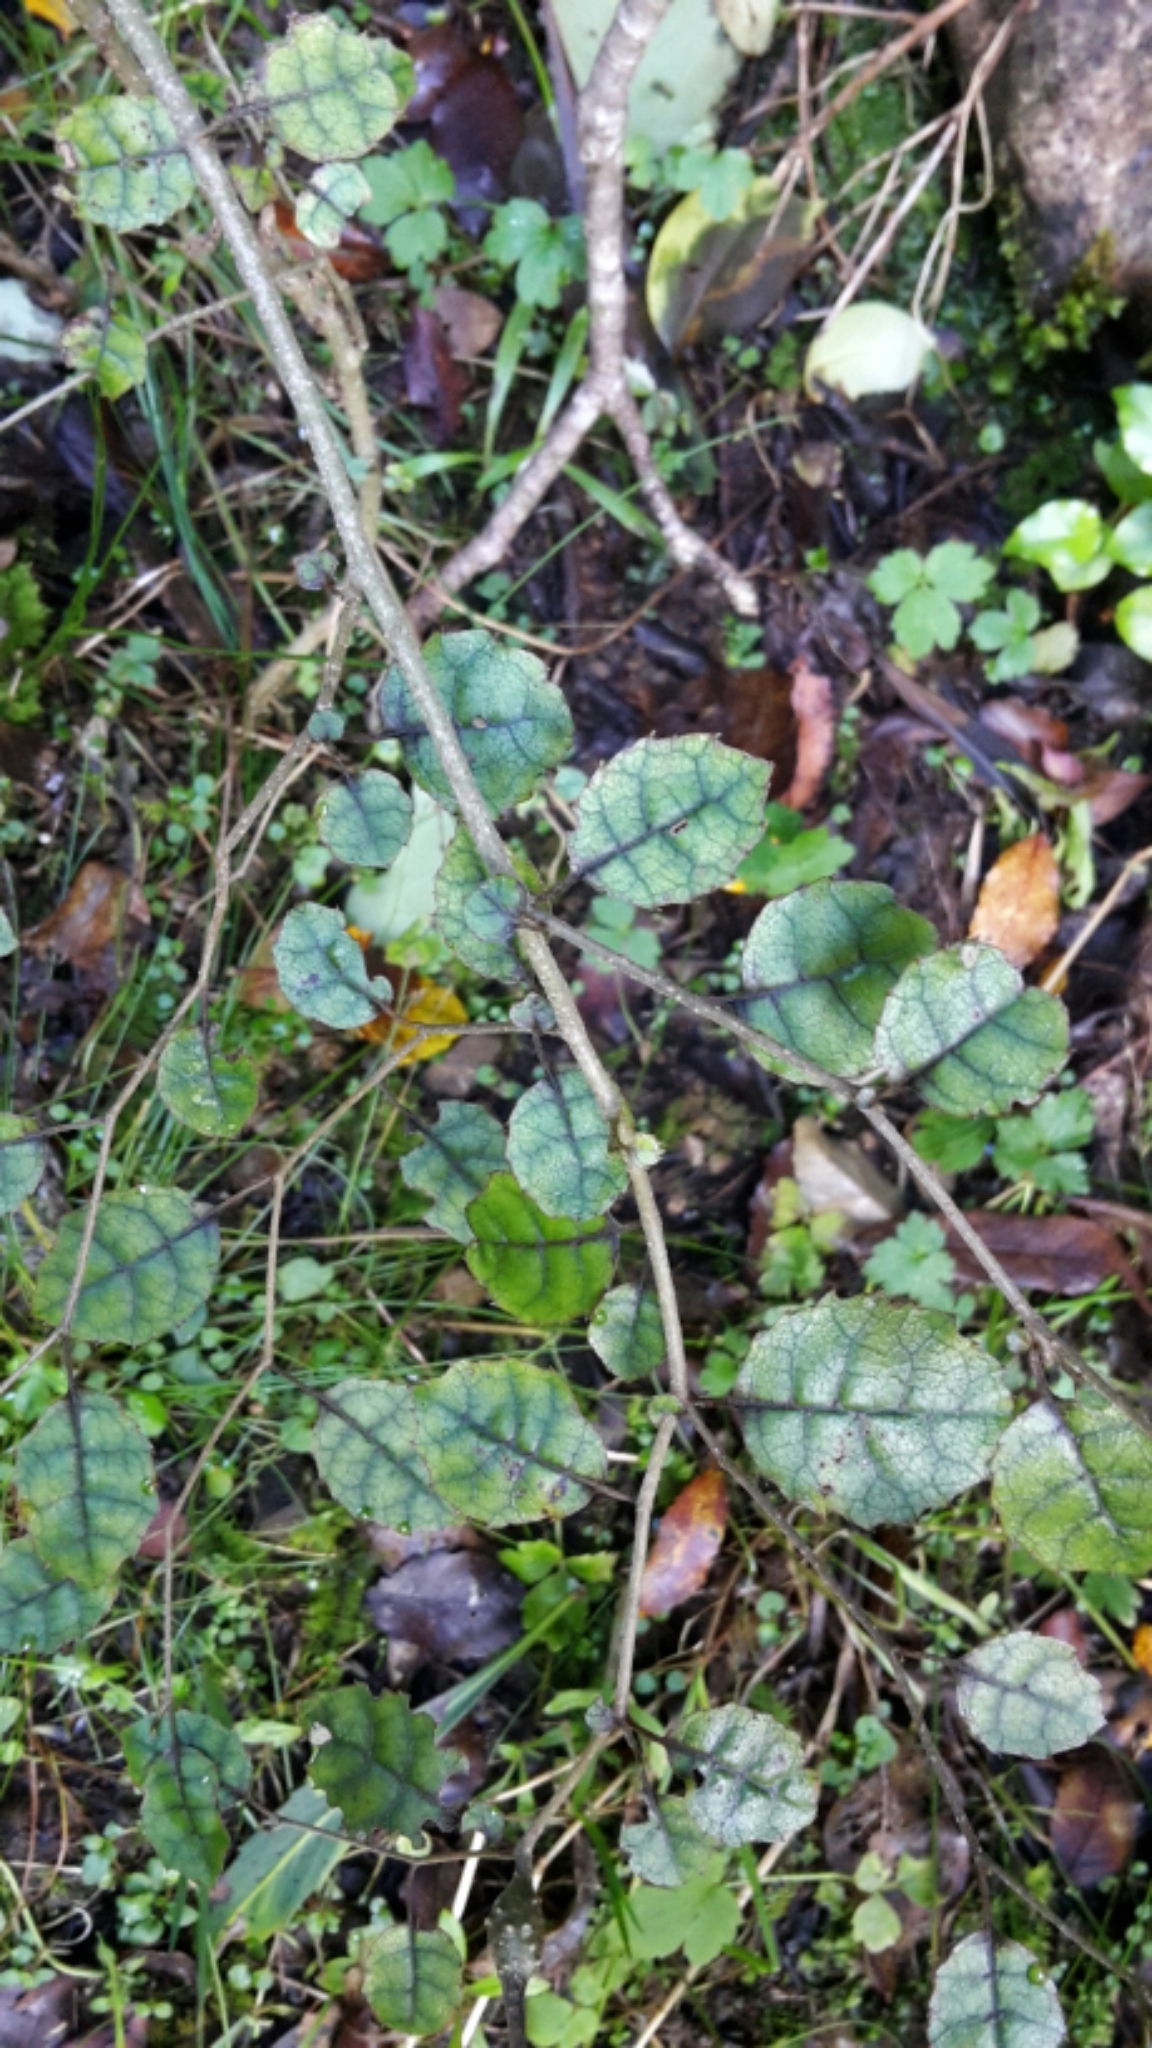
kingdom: Plantae
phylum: Tracheophyta
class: Magnoliopsida
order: Asterales
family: Rousseaceae
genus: Carpodetus
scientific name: Carpodetus serratus
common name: White mapau
